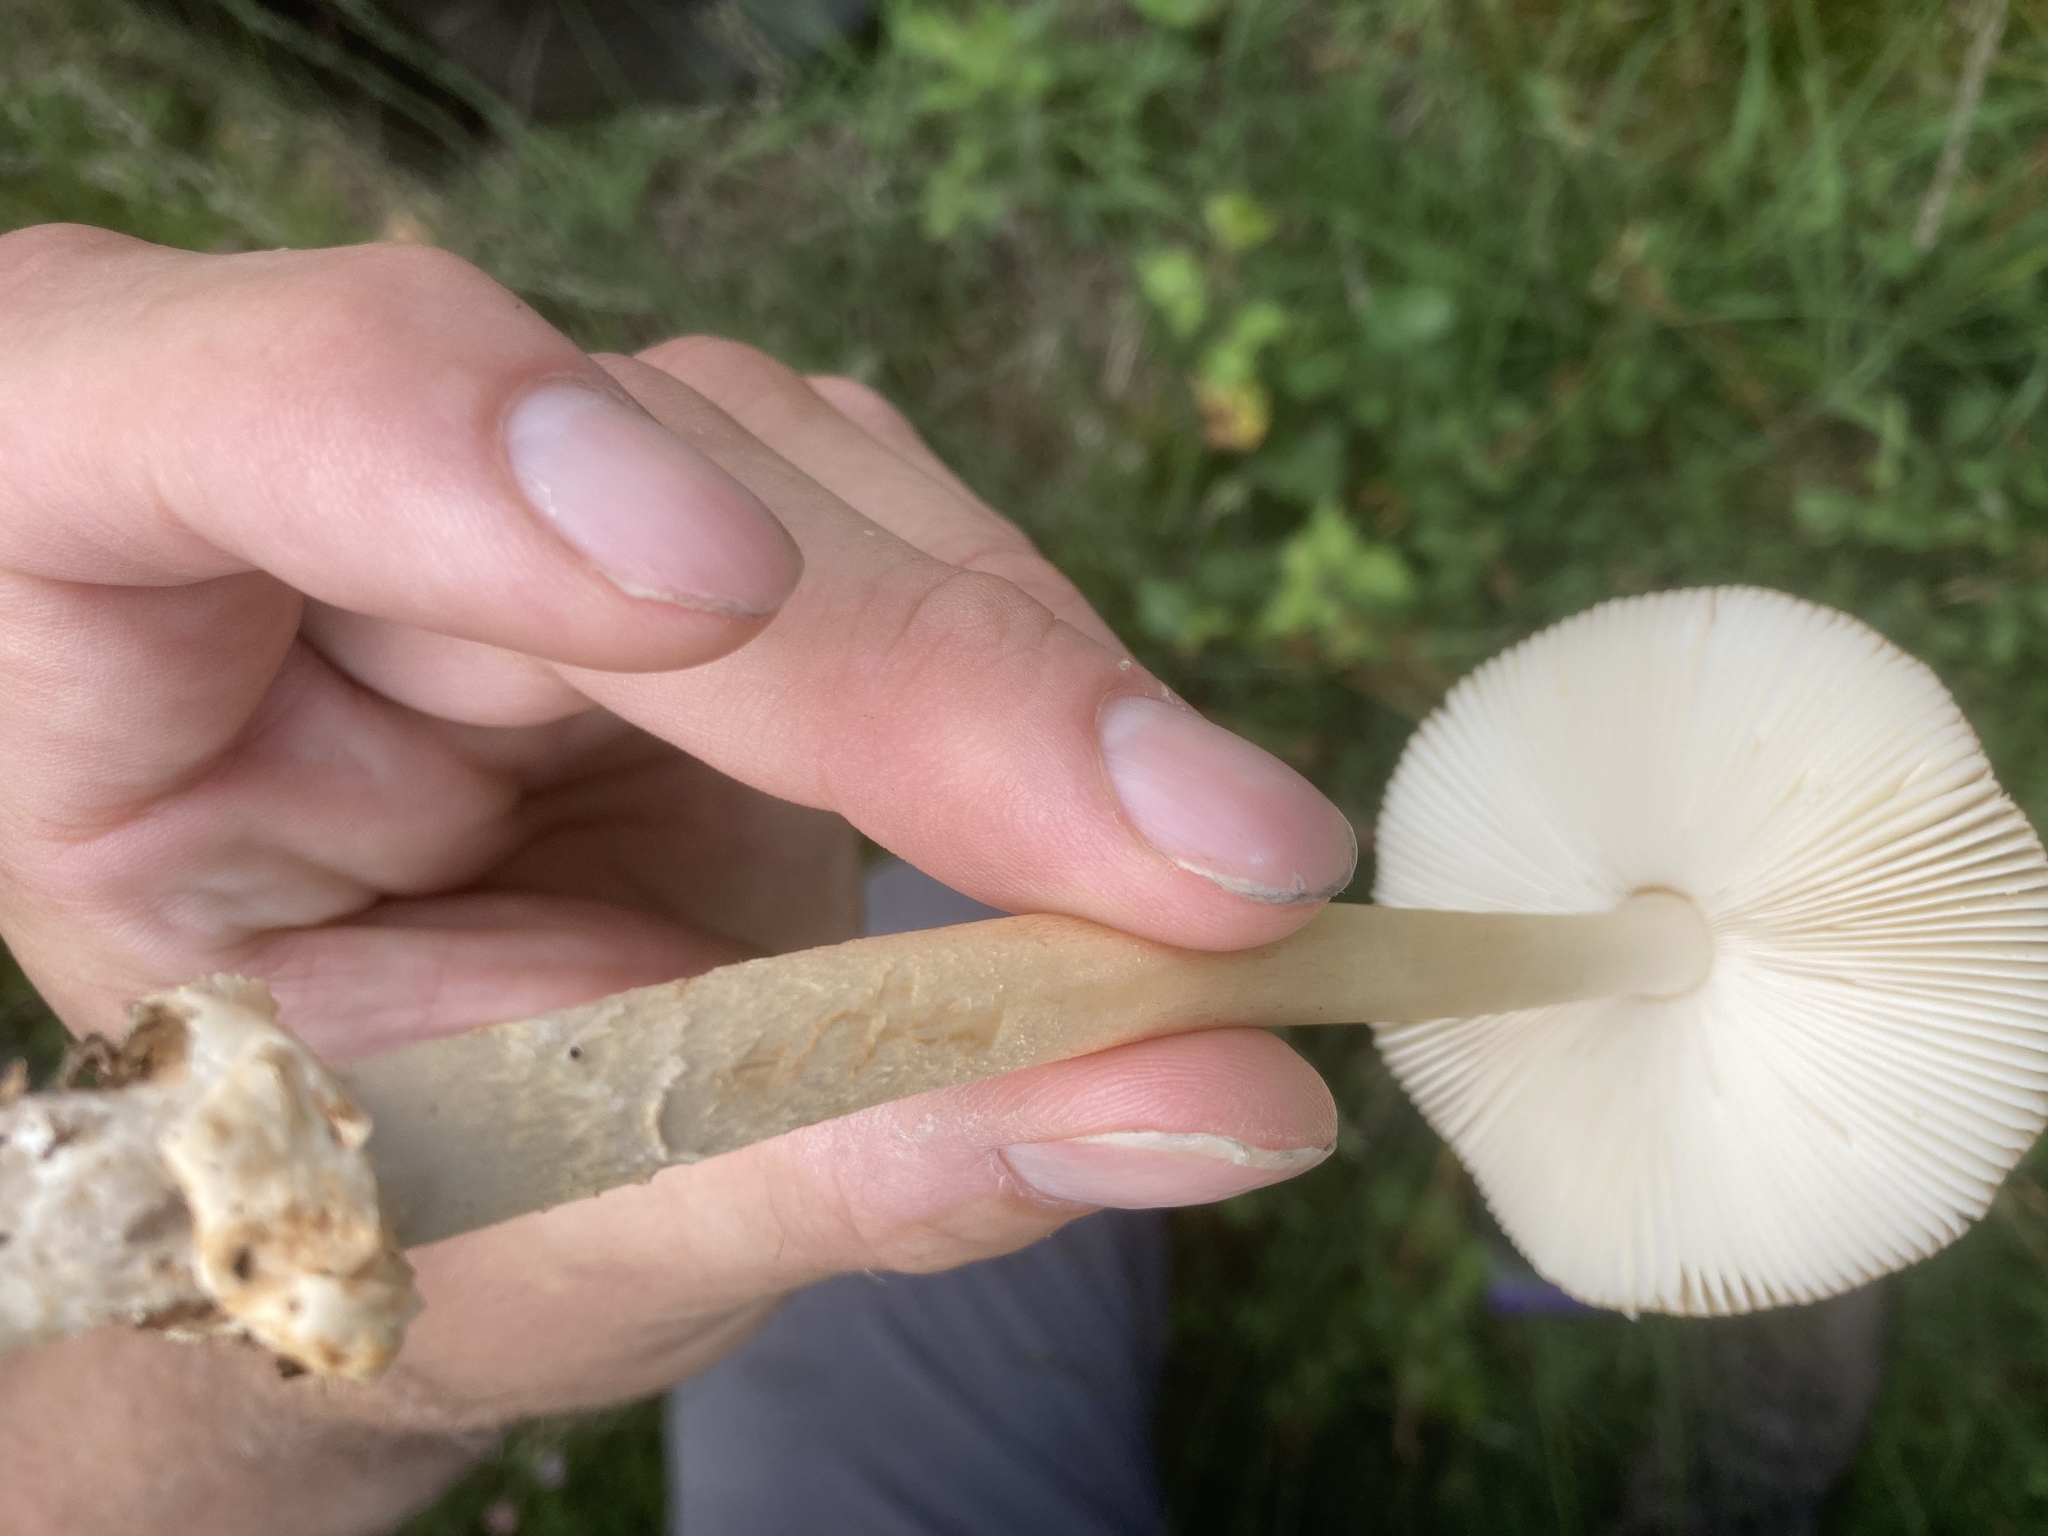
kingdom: Fungi
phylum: Basidiomycota
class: Agaricomycetes
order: Agaricales
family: Amanitaceae
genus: Amanita
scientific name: Amanita fulva
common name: Tawny grisette
